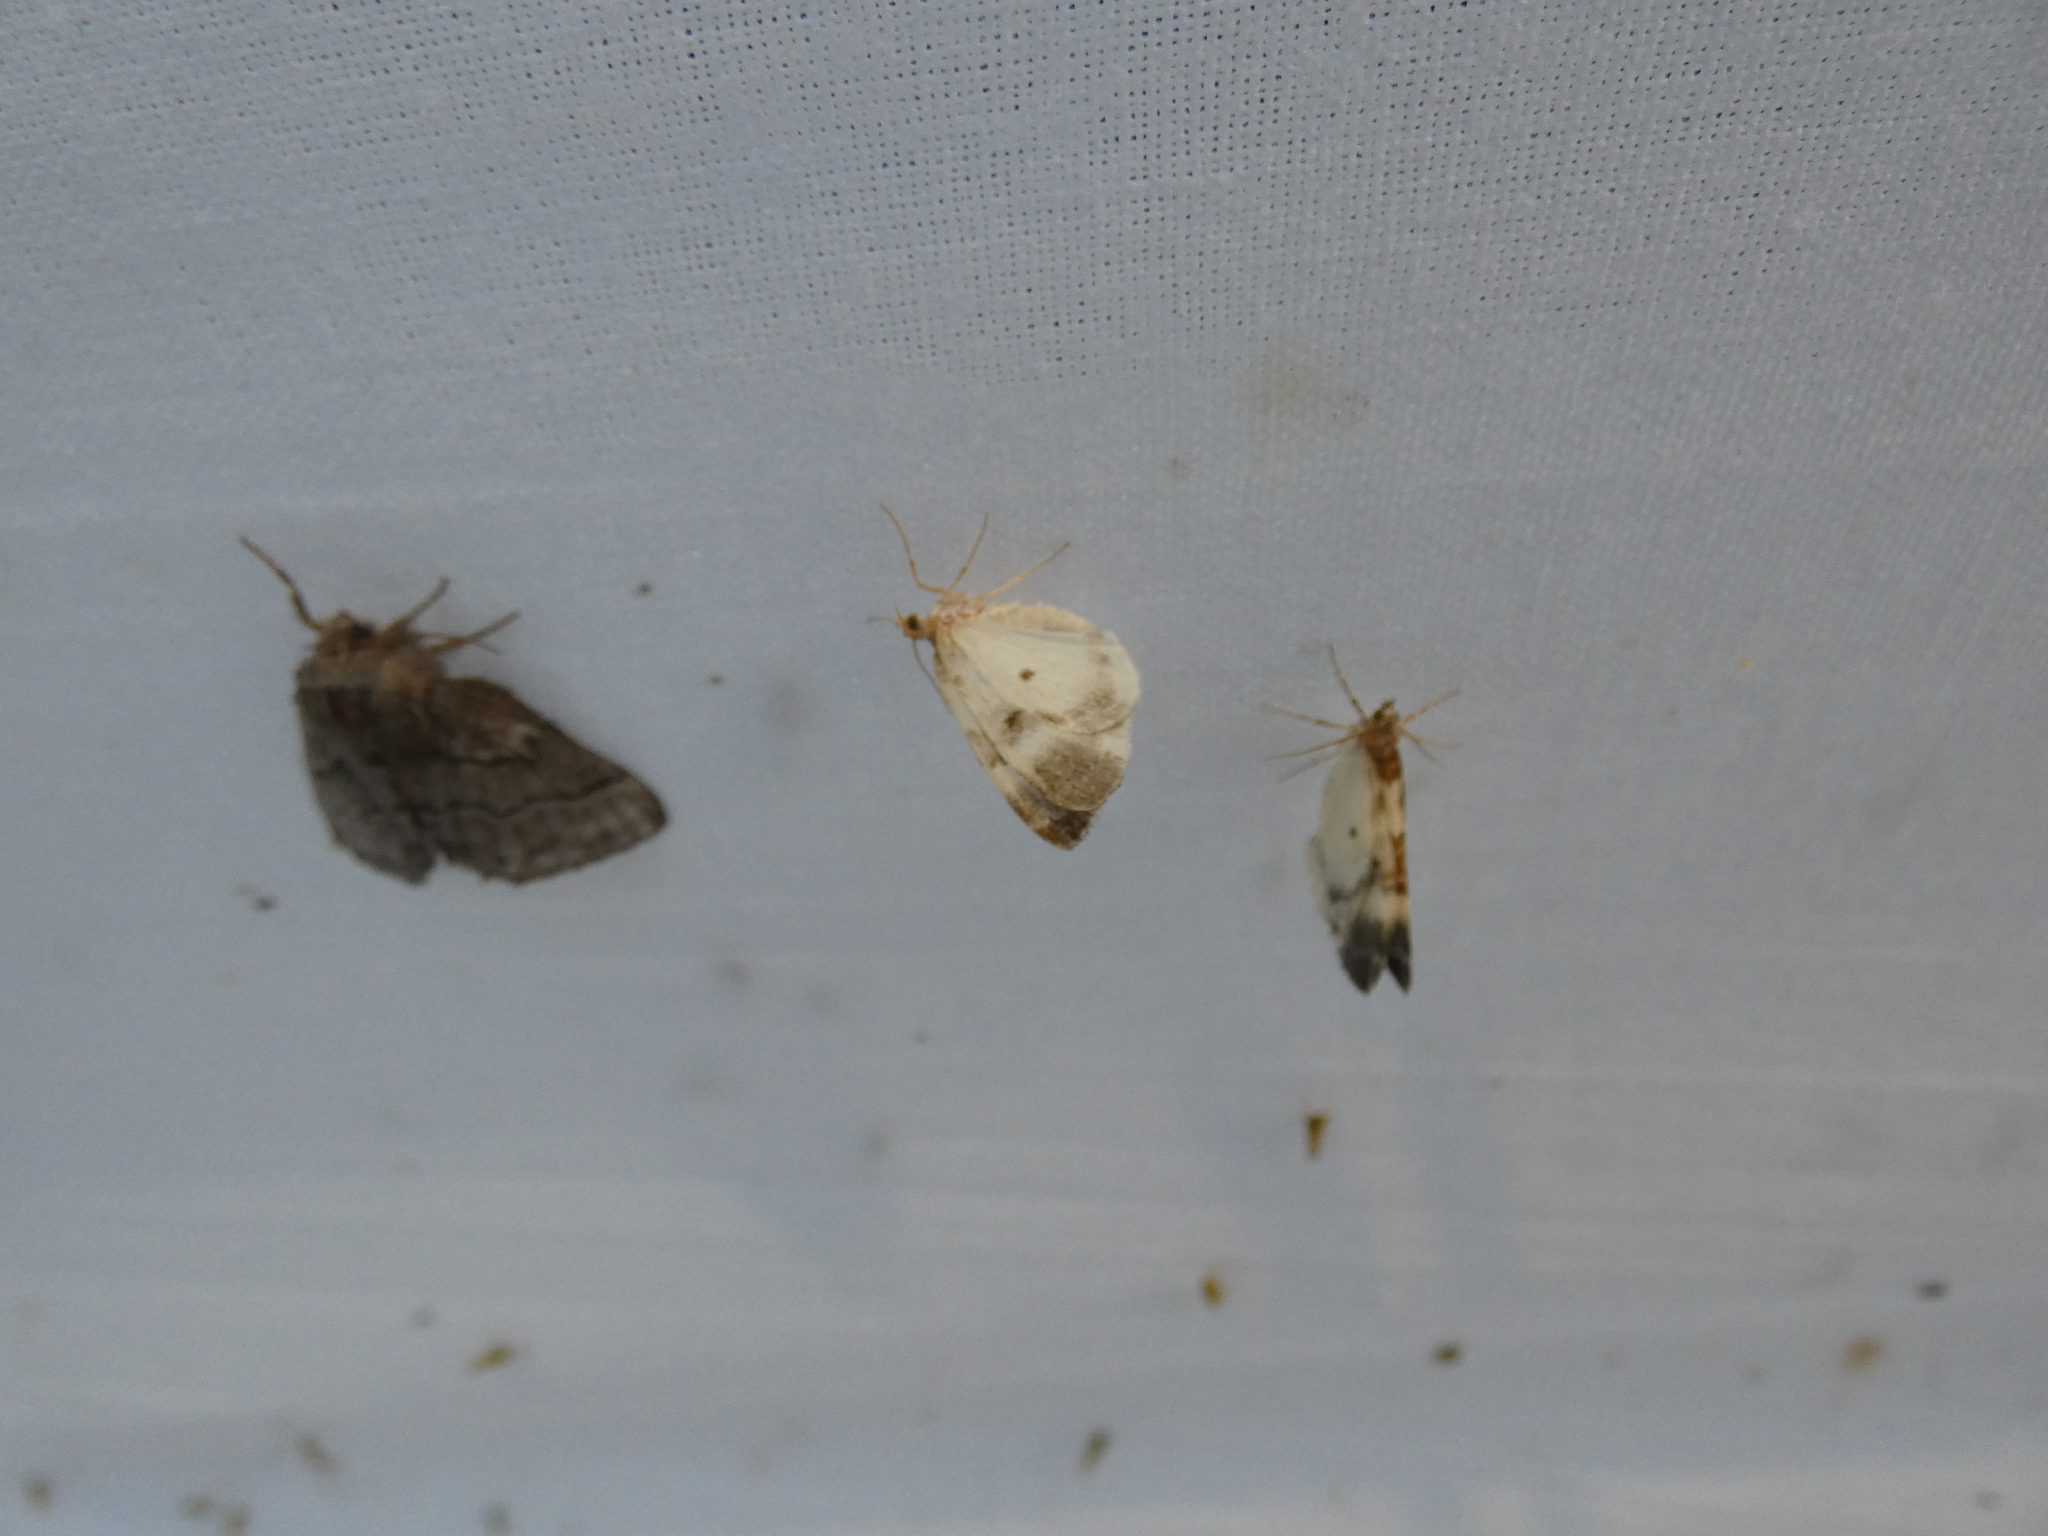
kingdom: Animalia
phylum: Arthropoda
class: Insecta
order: Lepidoptera
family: Geometridae
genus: Plemyria
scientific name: Plemyria rubiginata
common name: Blue-bordered carpet
